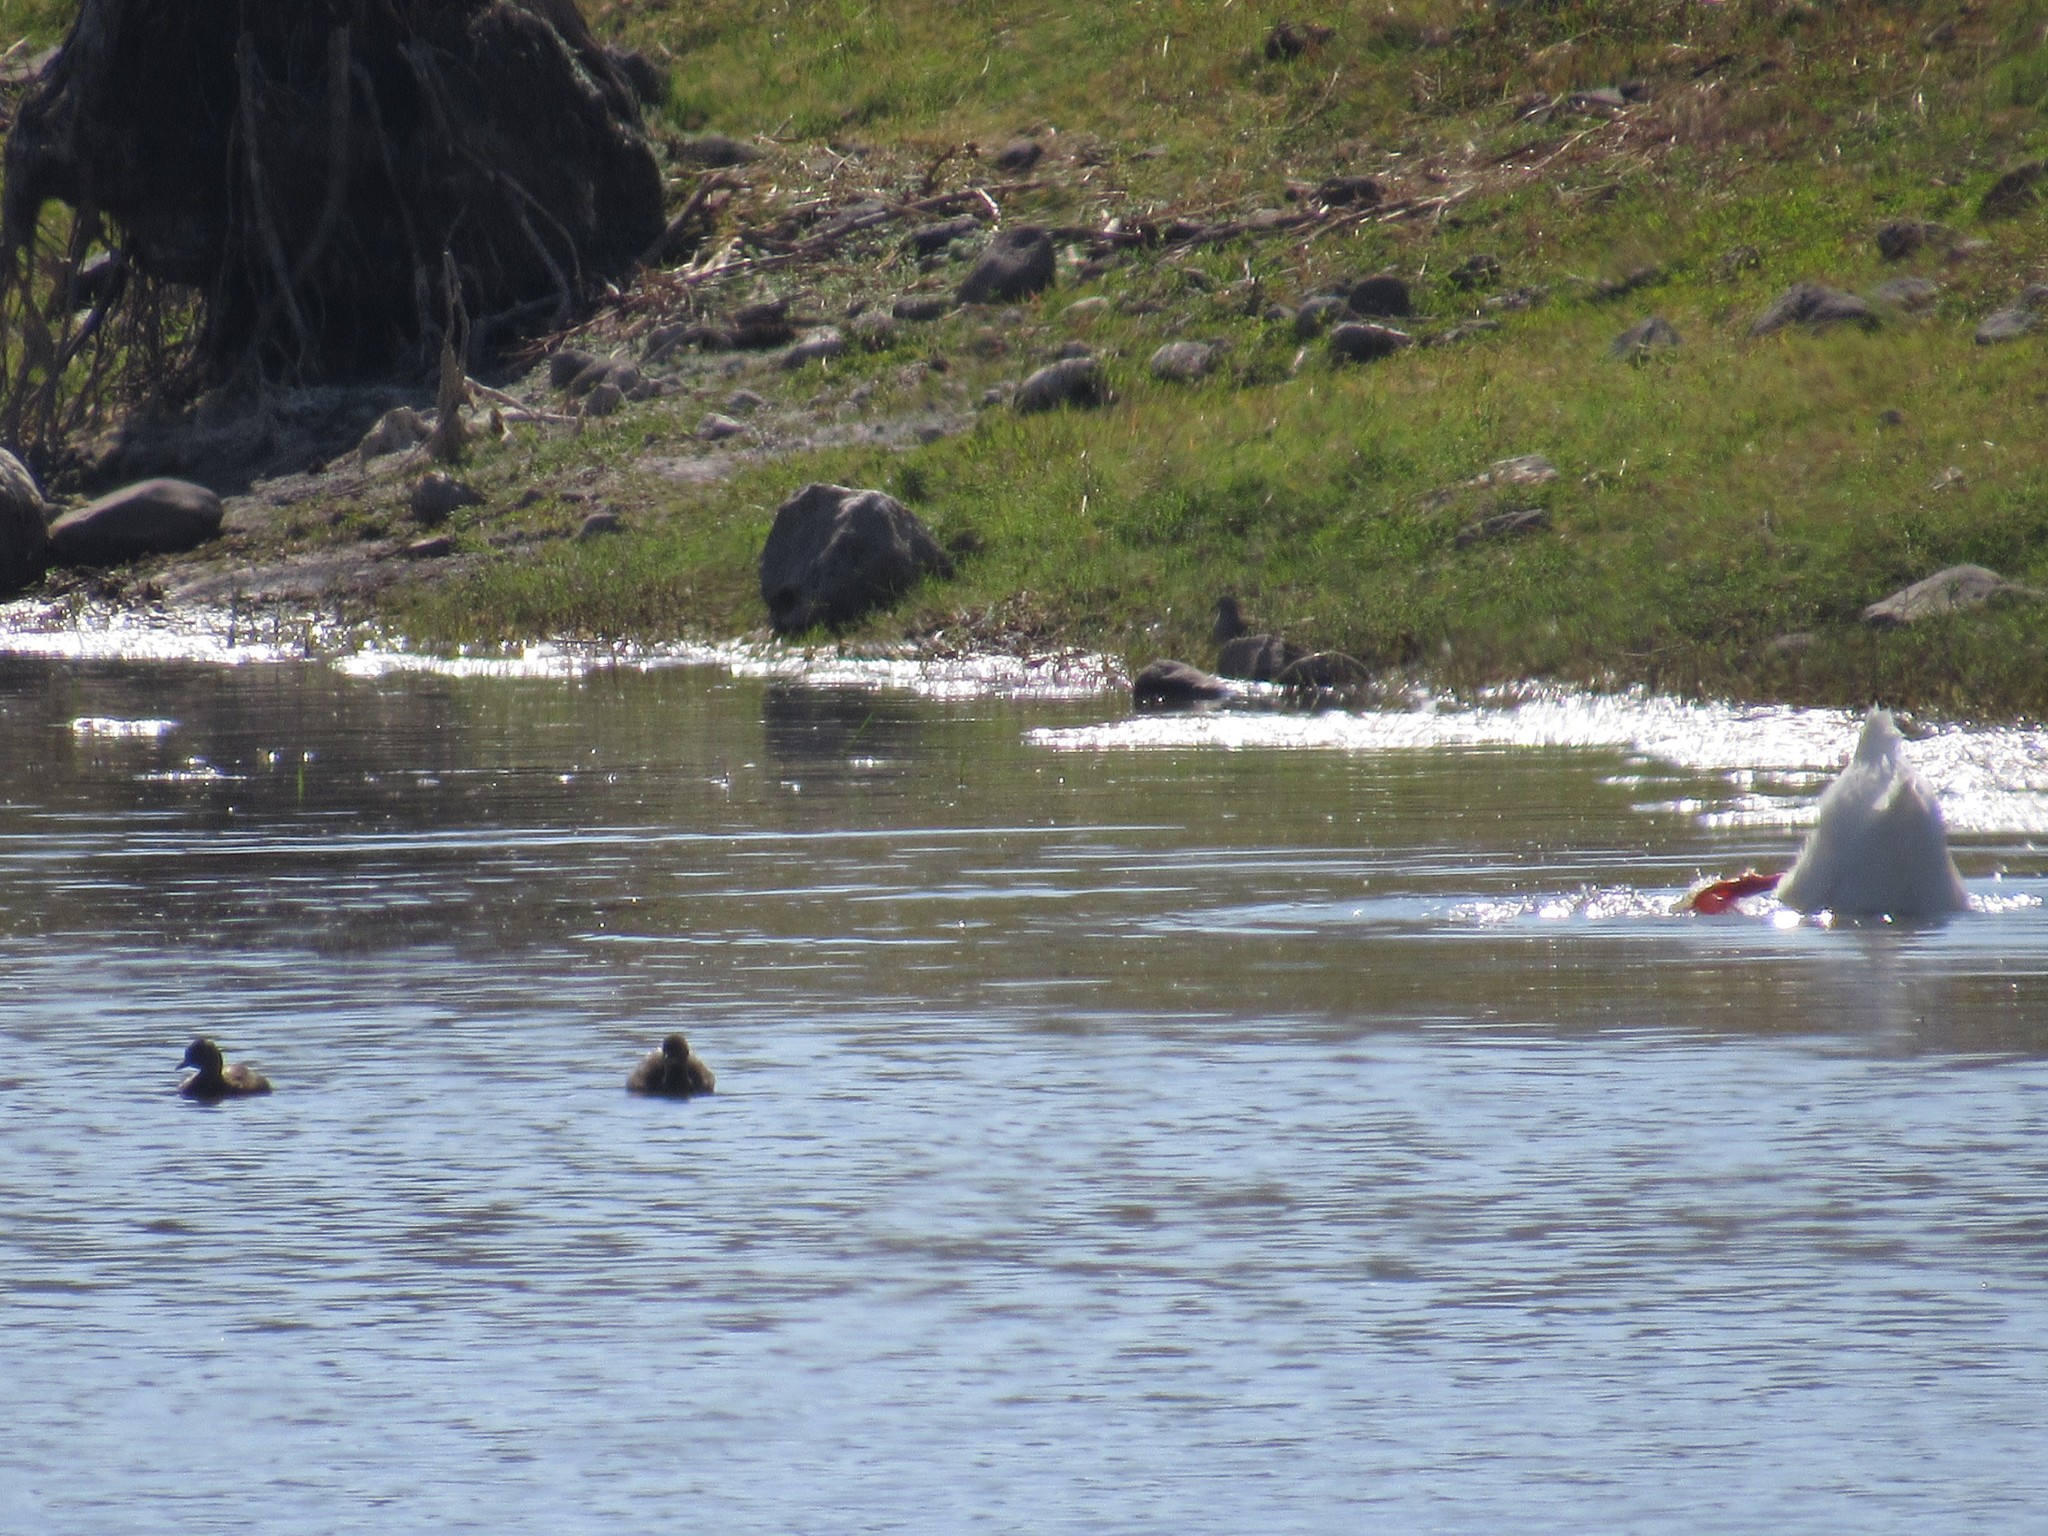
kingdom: Animalia
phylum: Chordata
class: Aves
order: Anseriformes
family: Anatidae
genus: Anas
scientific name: Anas platyrhynchos
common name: Mallard
